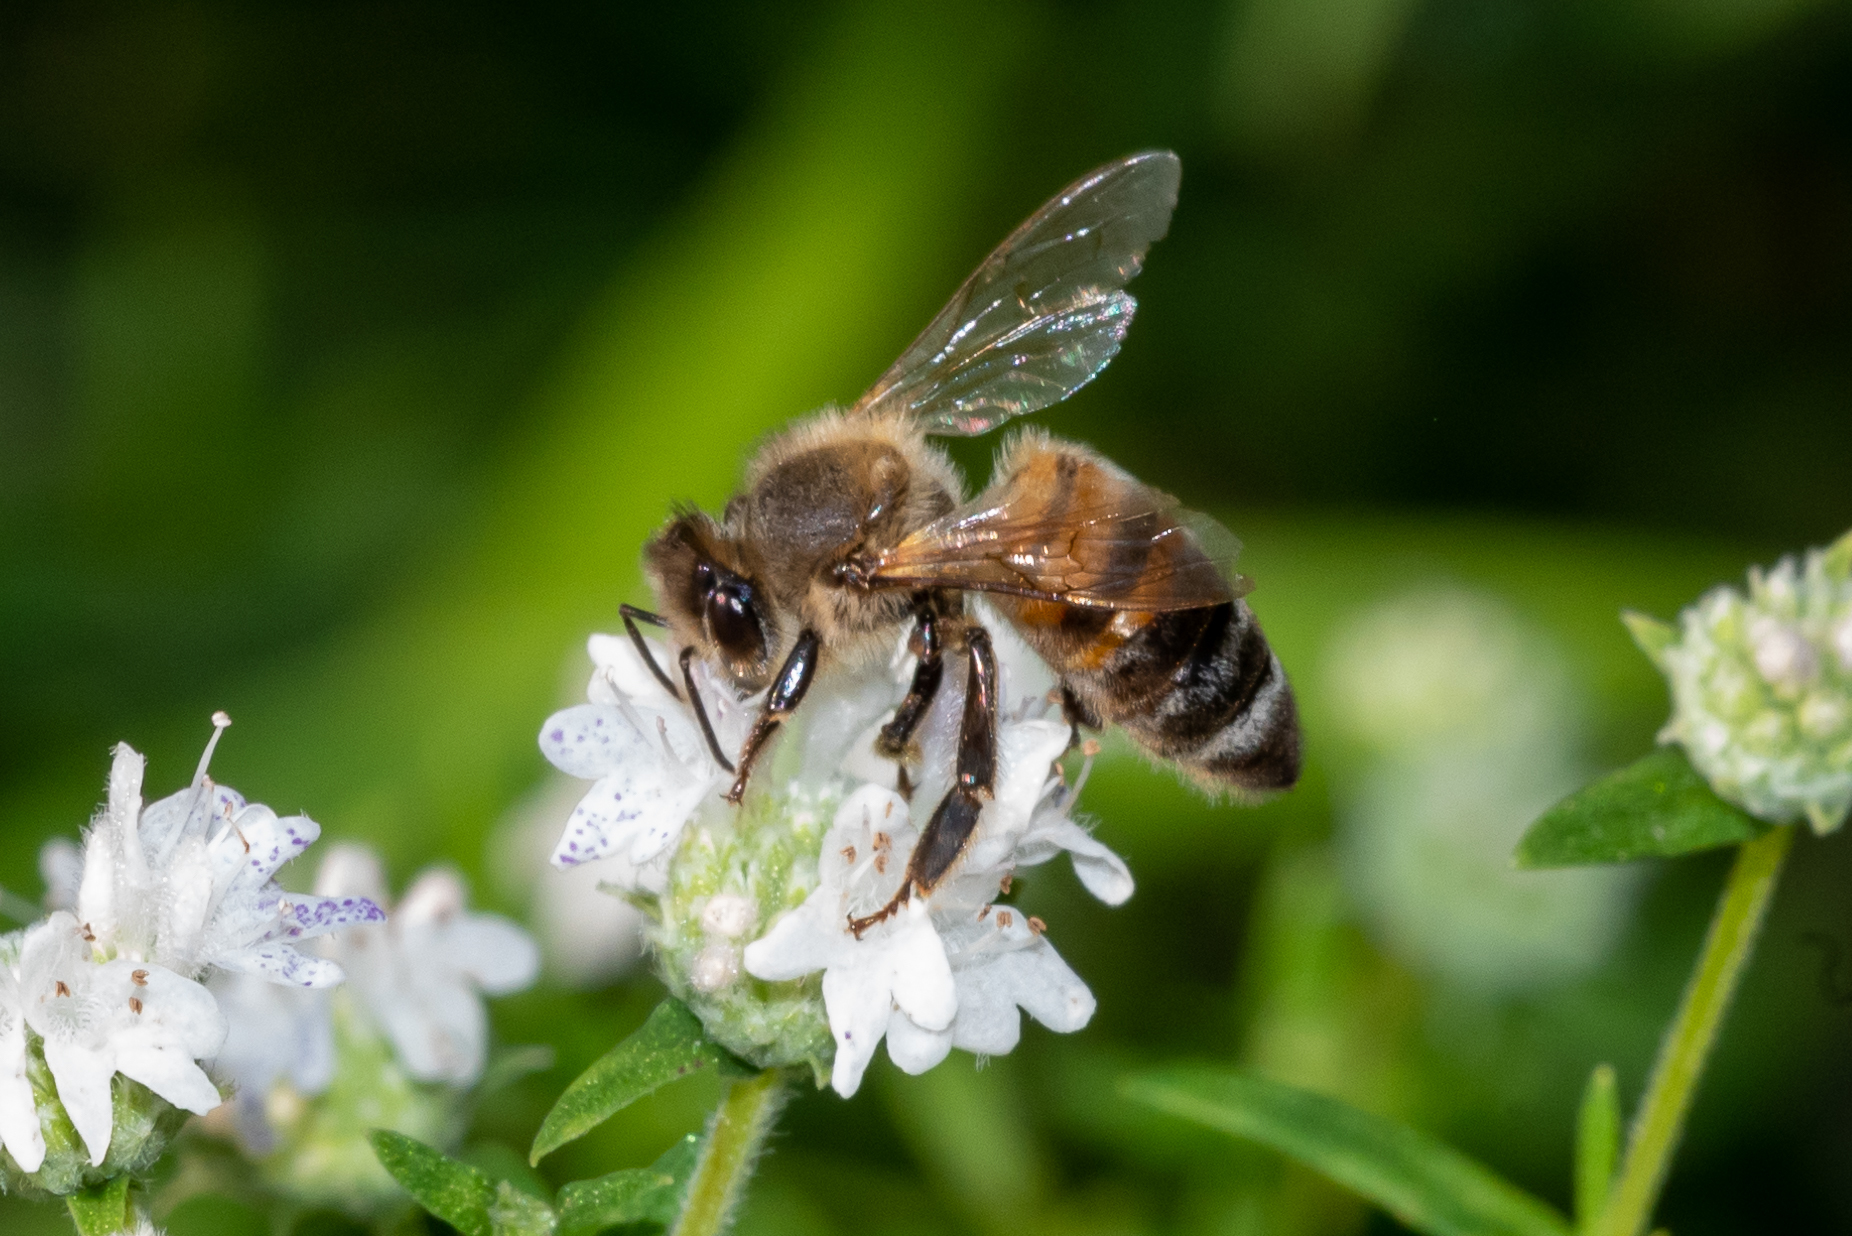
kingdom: Animalia
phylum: Arthropoda
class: Insecta
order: Hymenoptera
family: Apidae
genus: Apis
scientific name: Apis mellifera
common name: Honey bee
